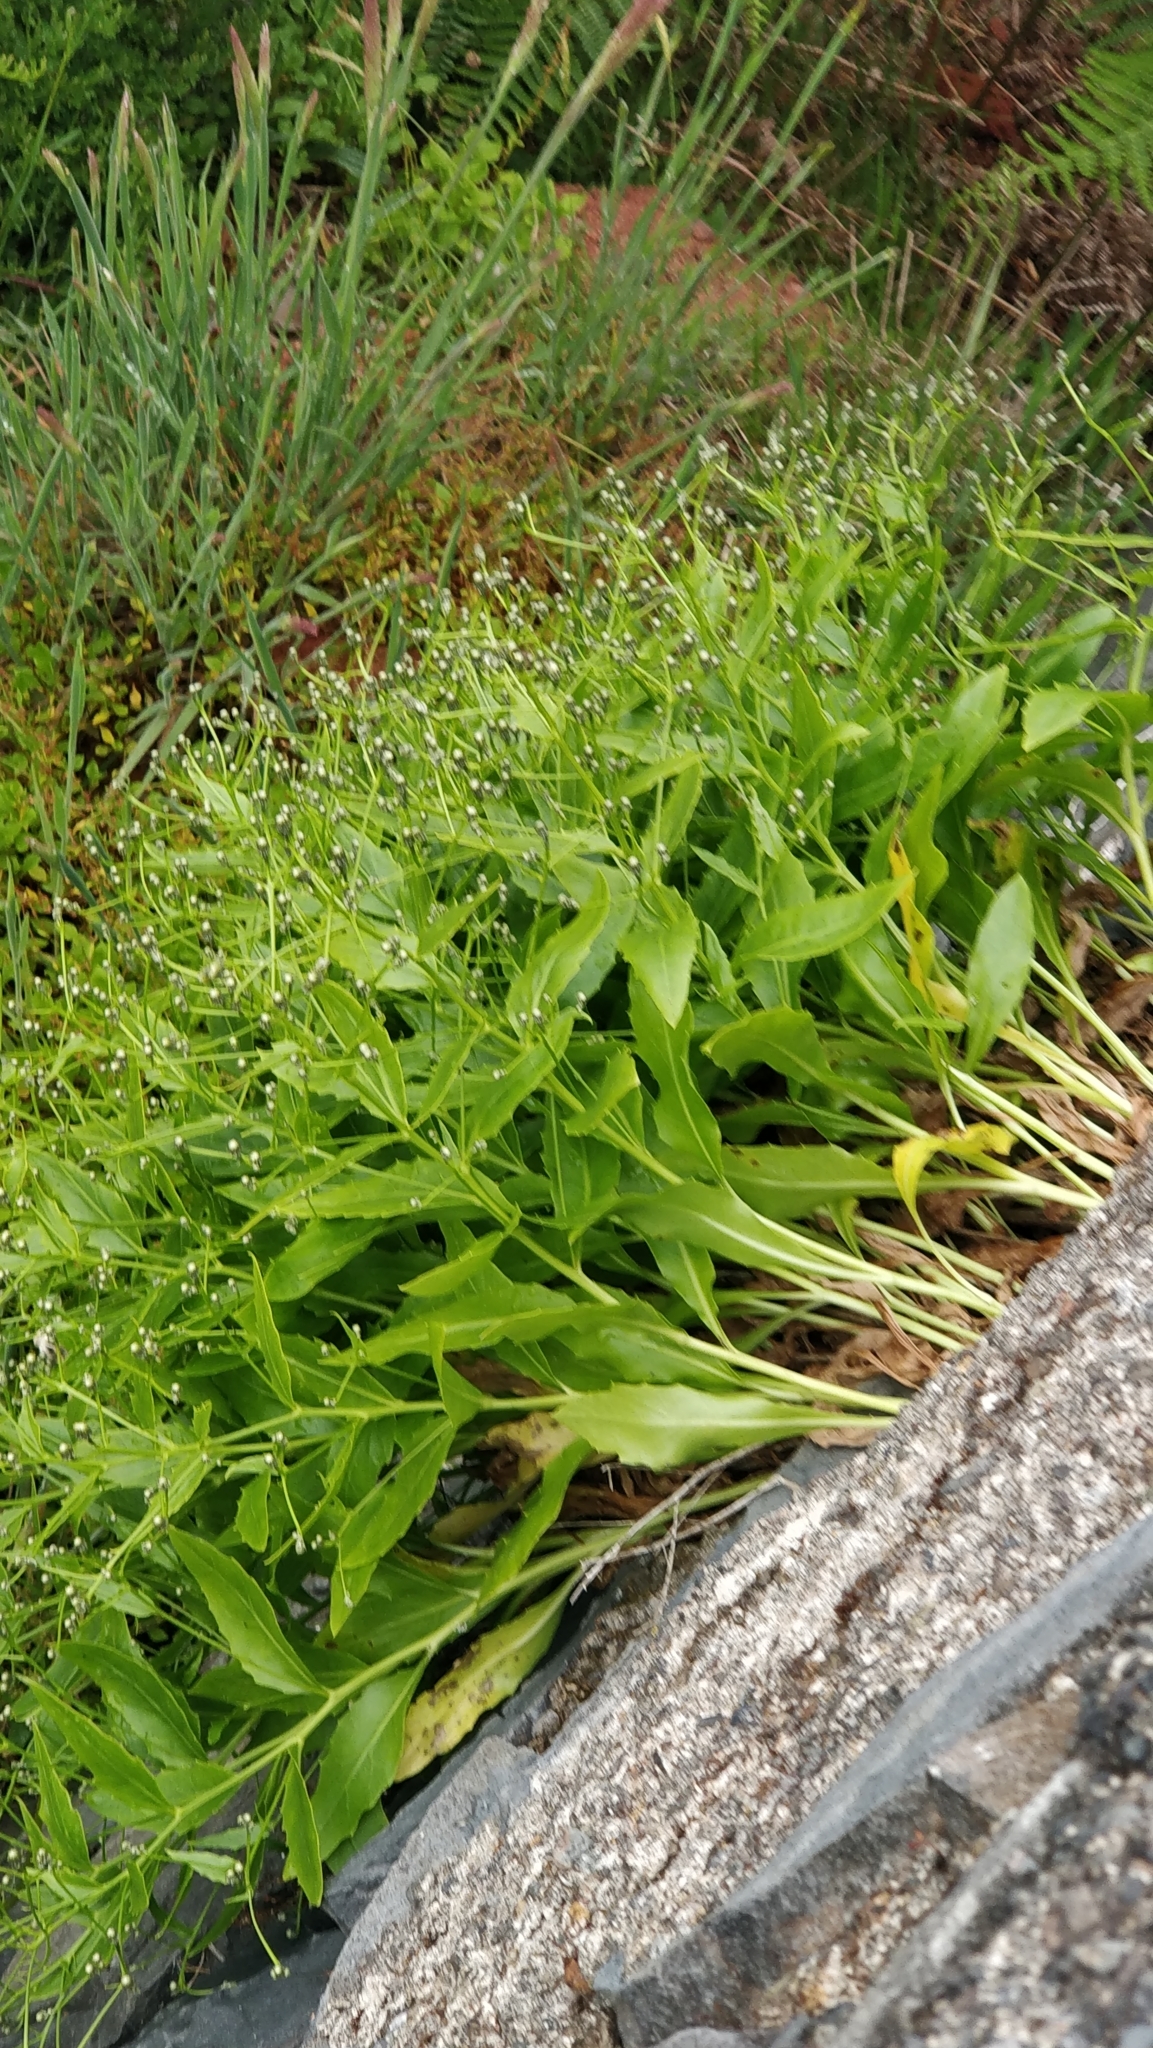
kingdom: Plantae
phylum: Tracheophyta
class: Magnoliopsida
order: Asterales
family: Asteraceae
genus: Tolpis
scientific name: Tolpis macrorhiza
